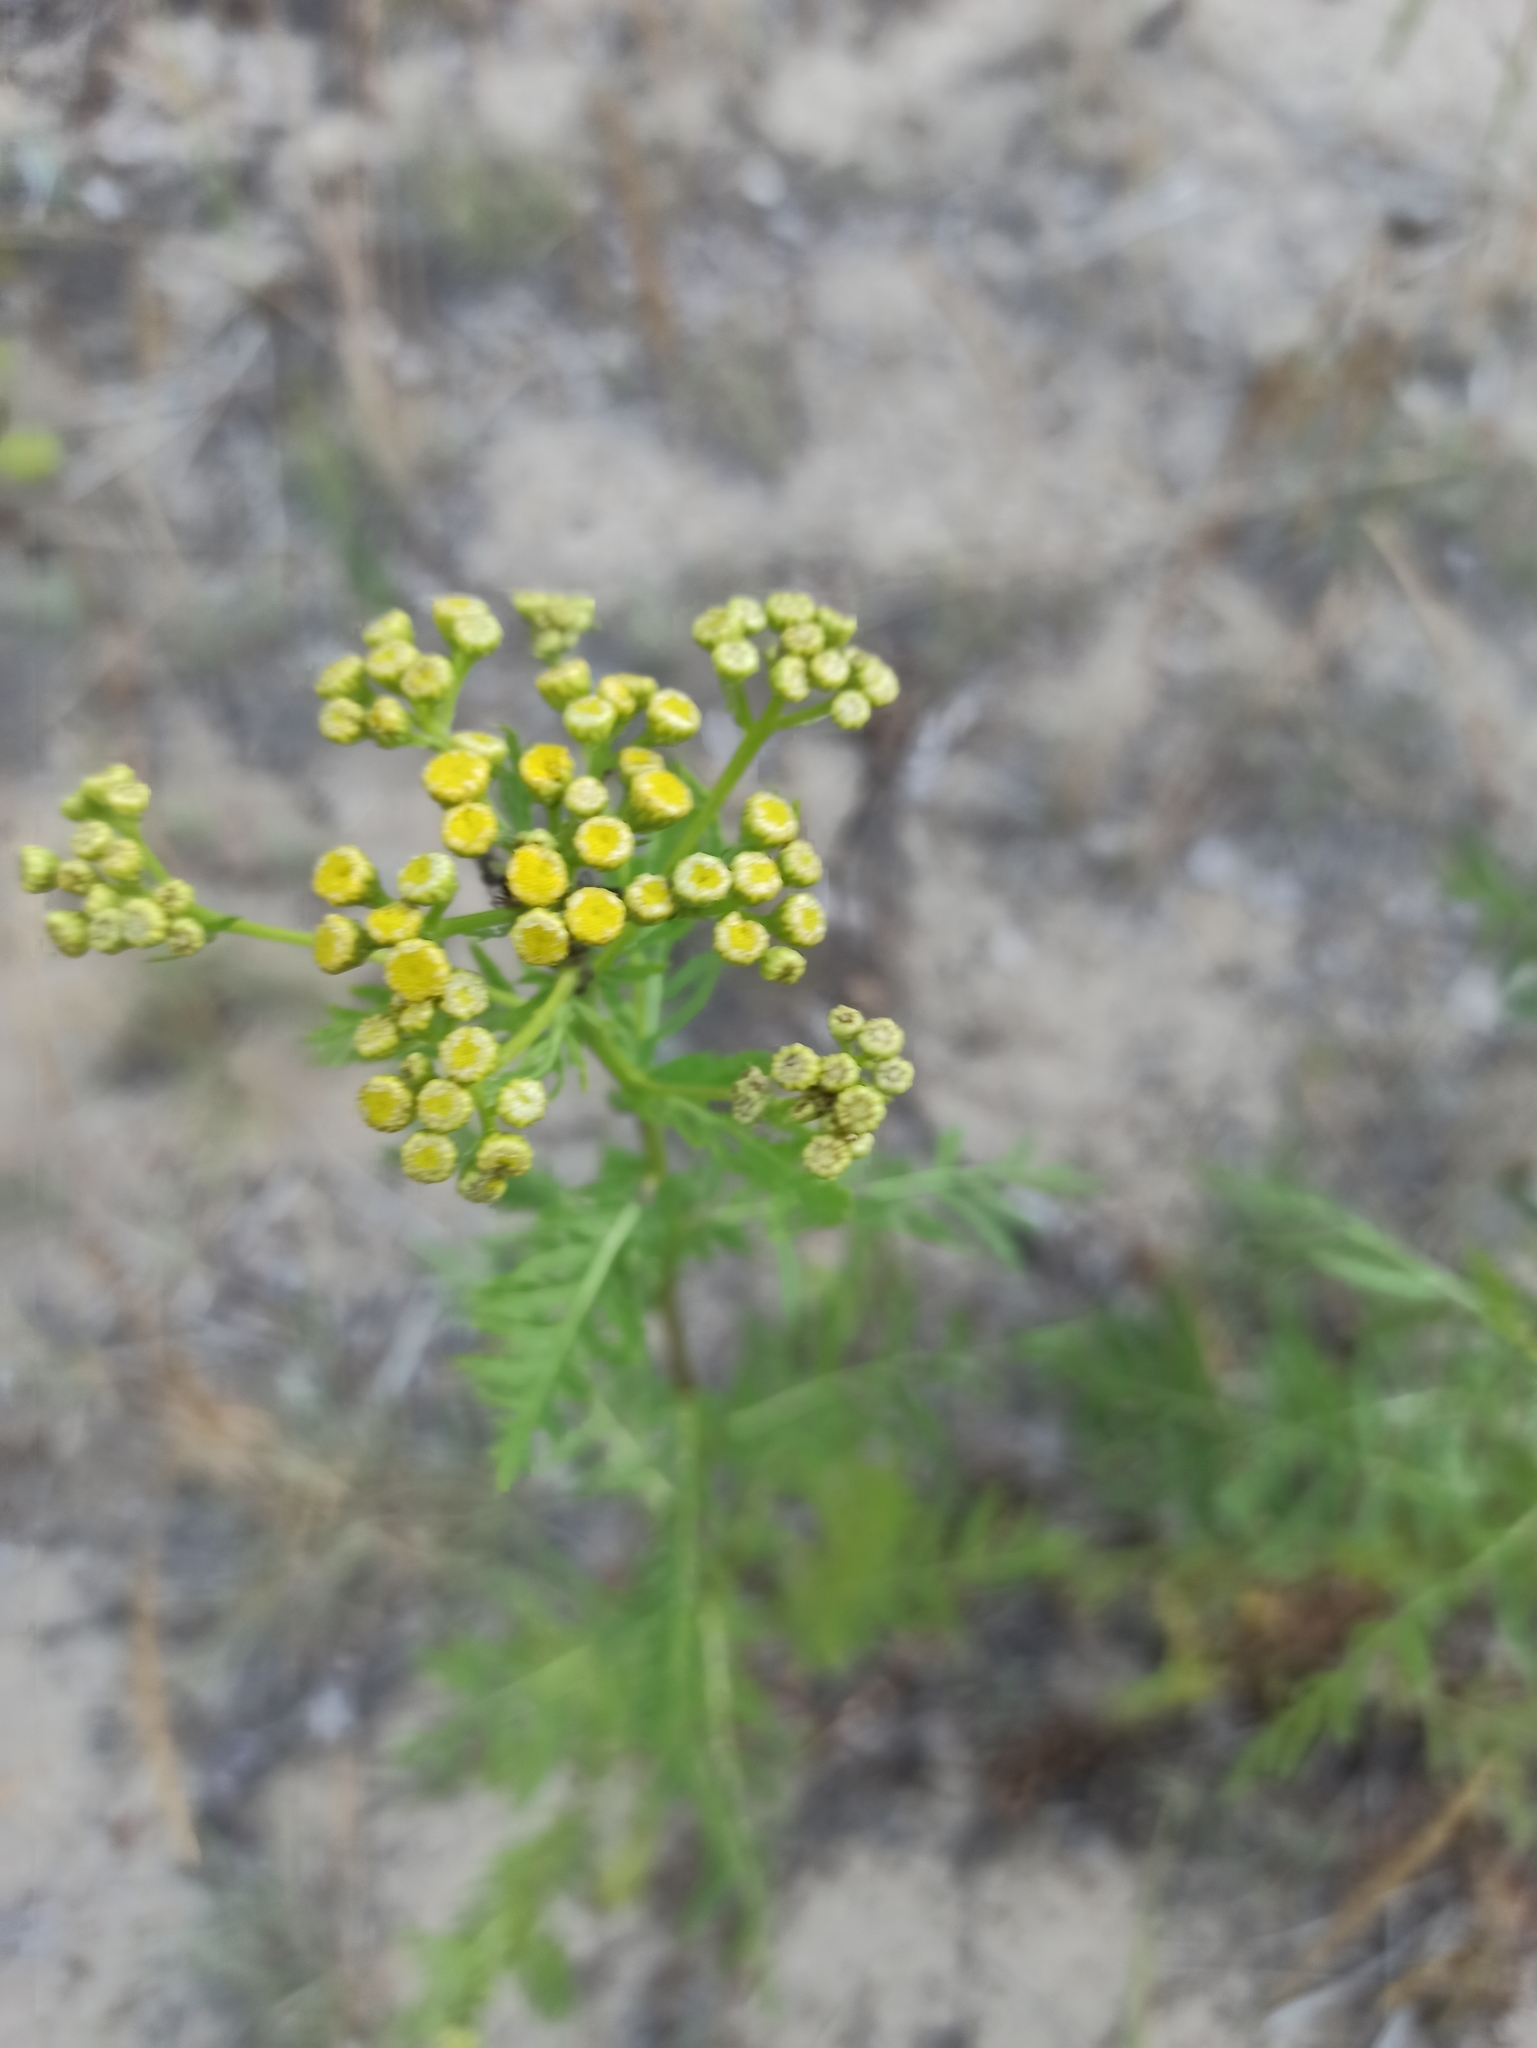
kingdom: Plantae
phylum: Tracheophyta
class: Magnoliopsida
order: Asterales
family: Asteraceae
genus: Tanacetum
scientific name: Tanacetum vulgare
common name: Common tansy
